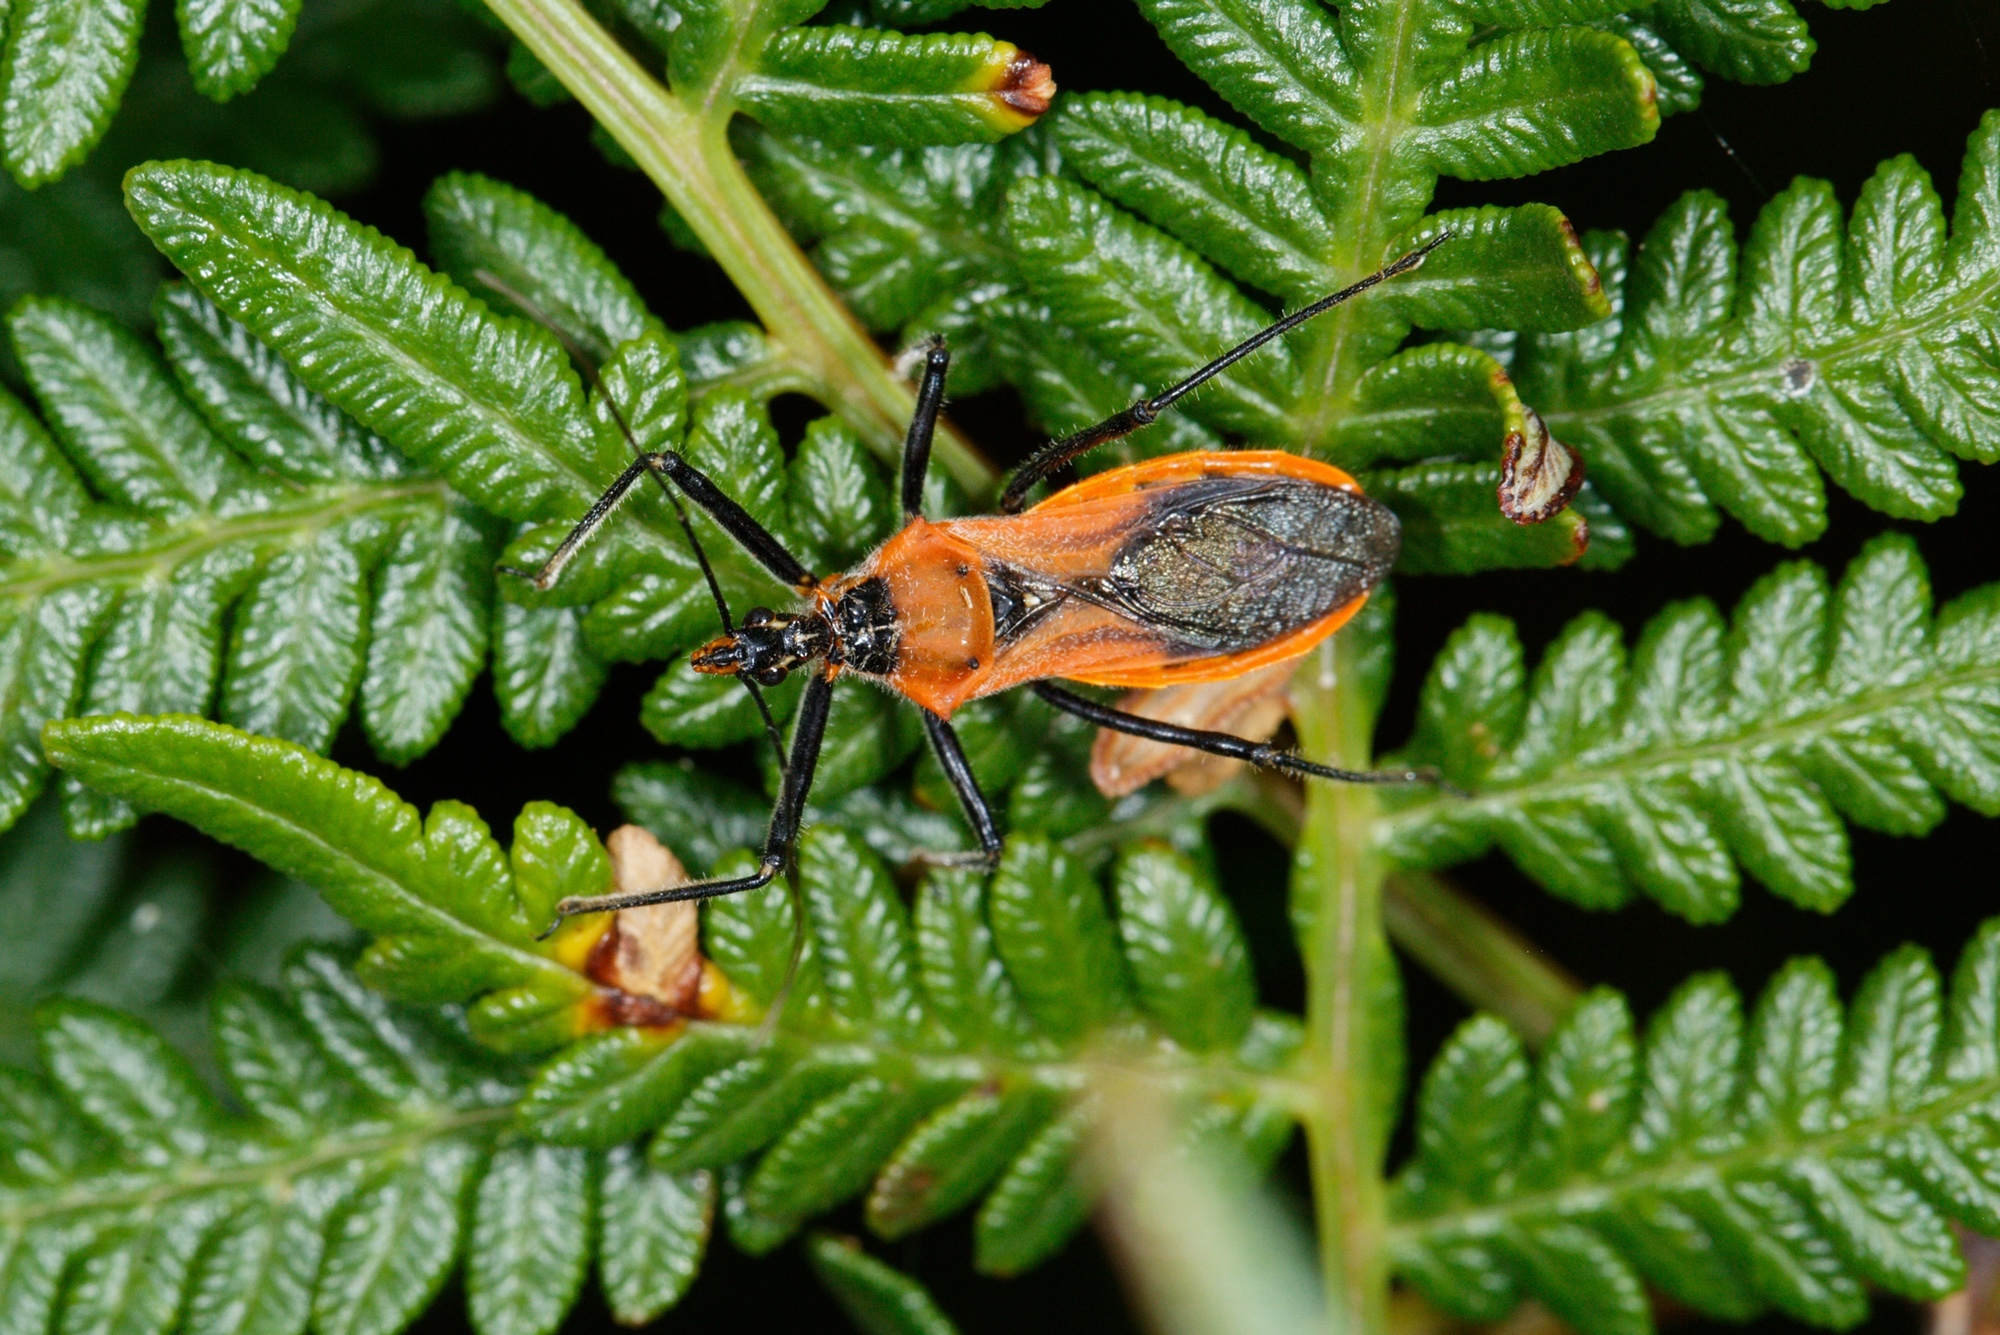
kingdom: Animalia
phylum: Arthropoda
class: Insecta
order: Hemiptera
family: Reduviidae
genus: Gminatus
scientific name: Gminatus australis
